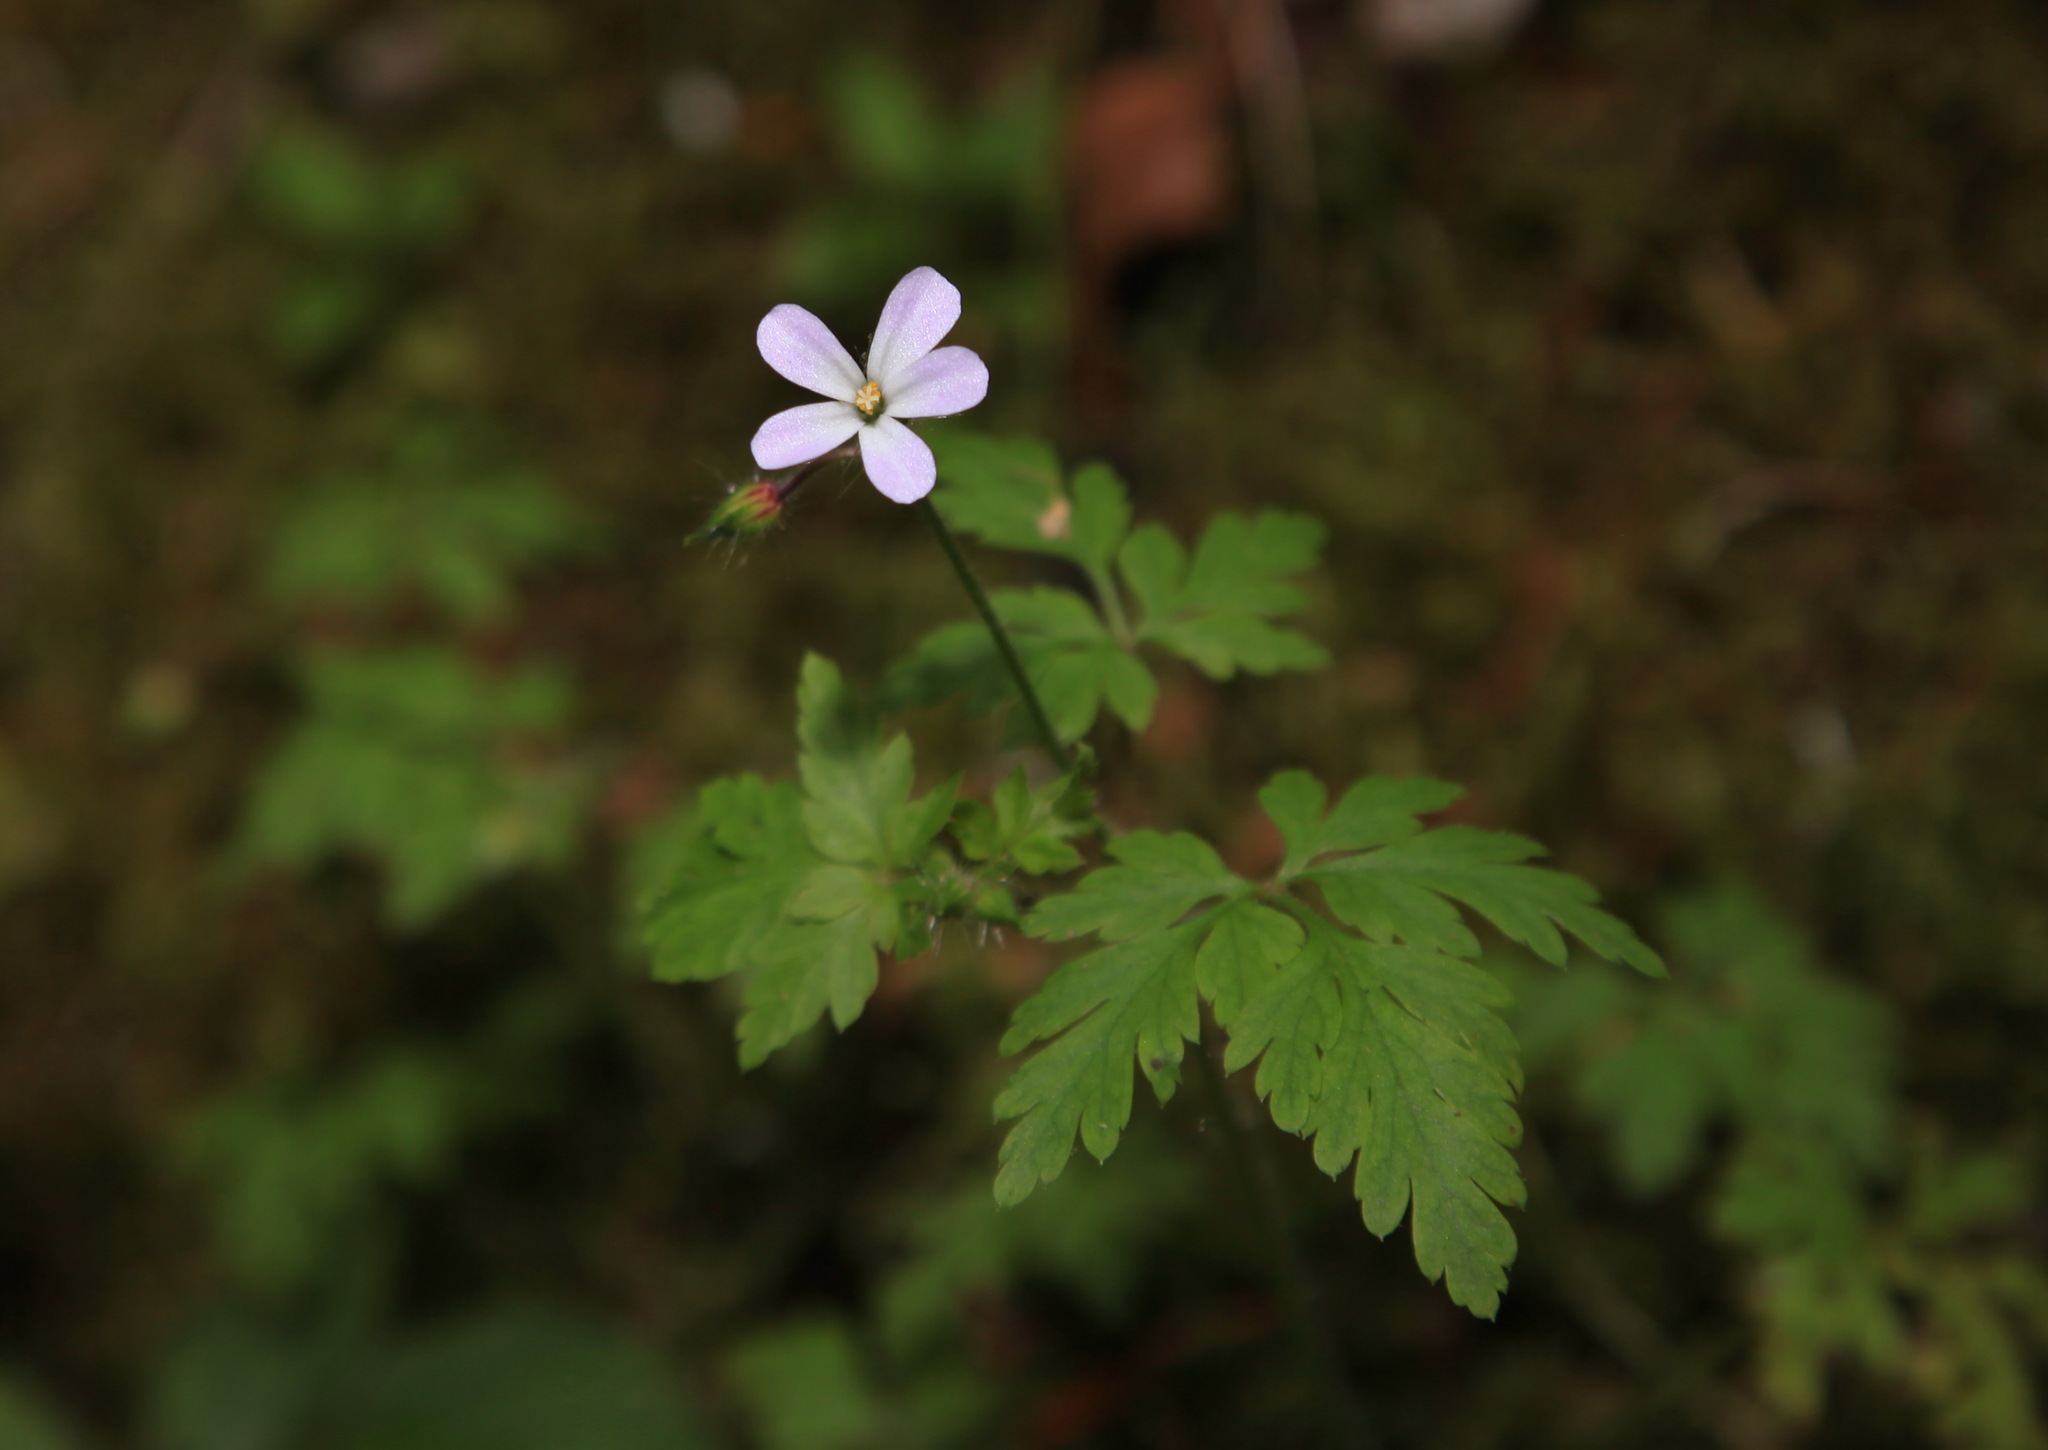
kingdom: Plantae
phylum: Tracheophyta
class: Magnoliopsida
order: Geraniales
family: Geraniaceae
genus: Geranium
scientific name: Geranium robertianum
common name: Herb-robert
